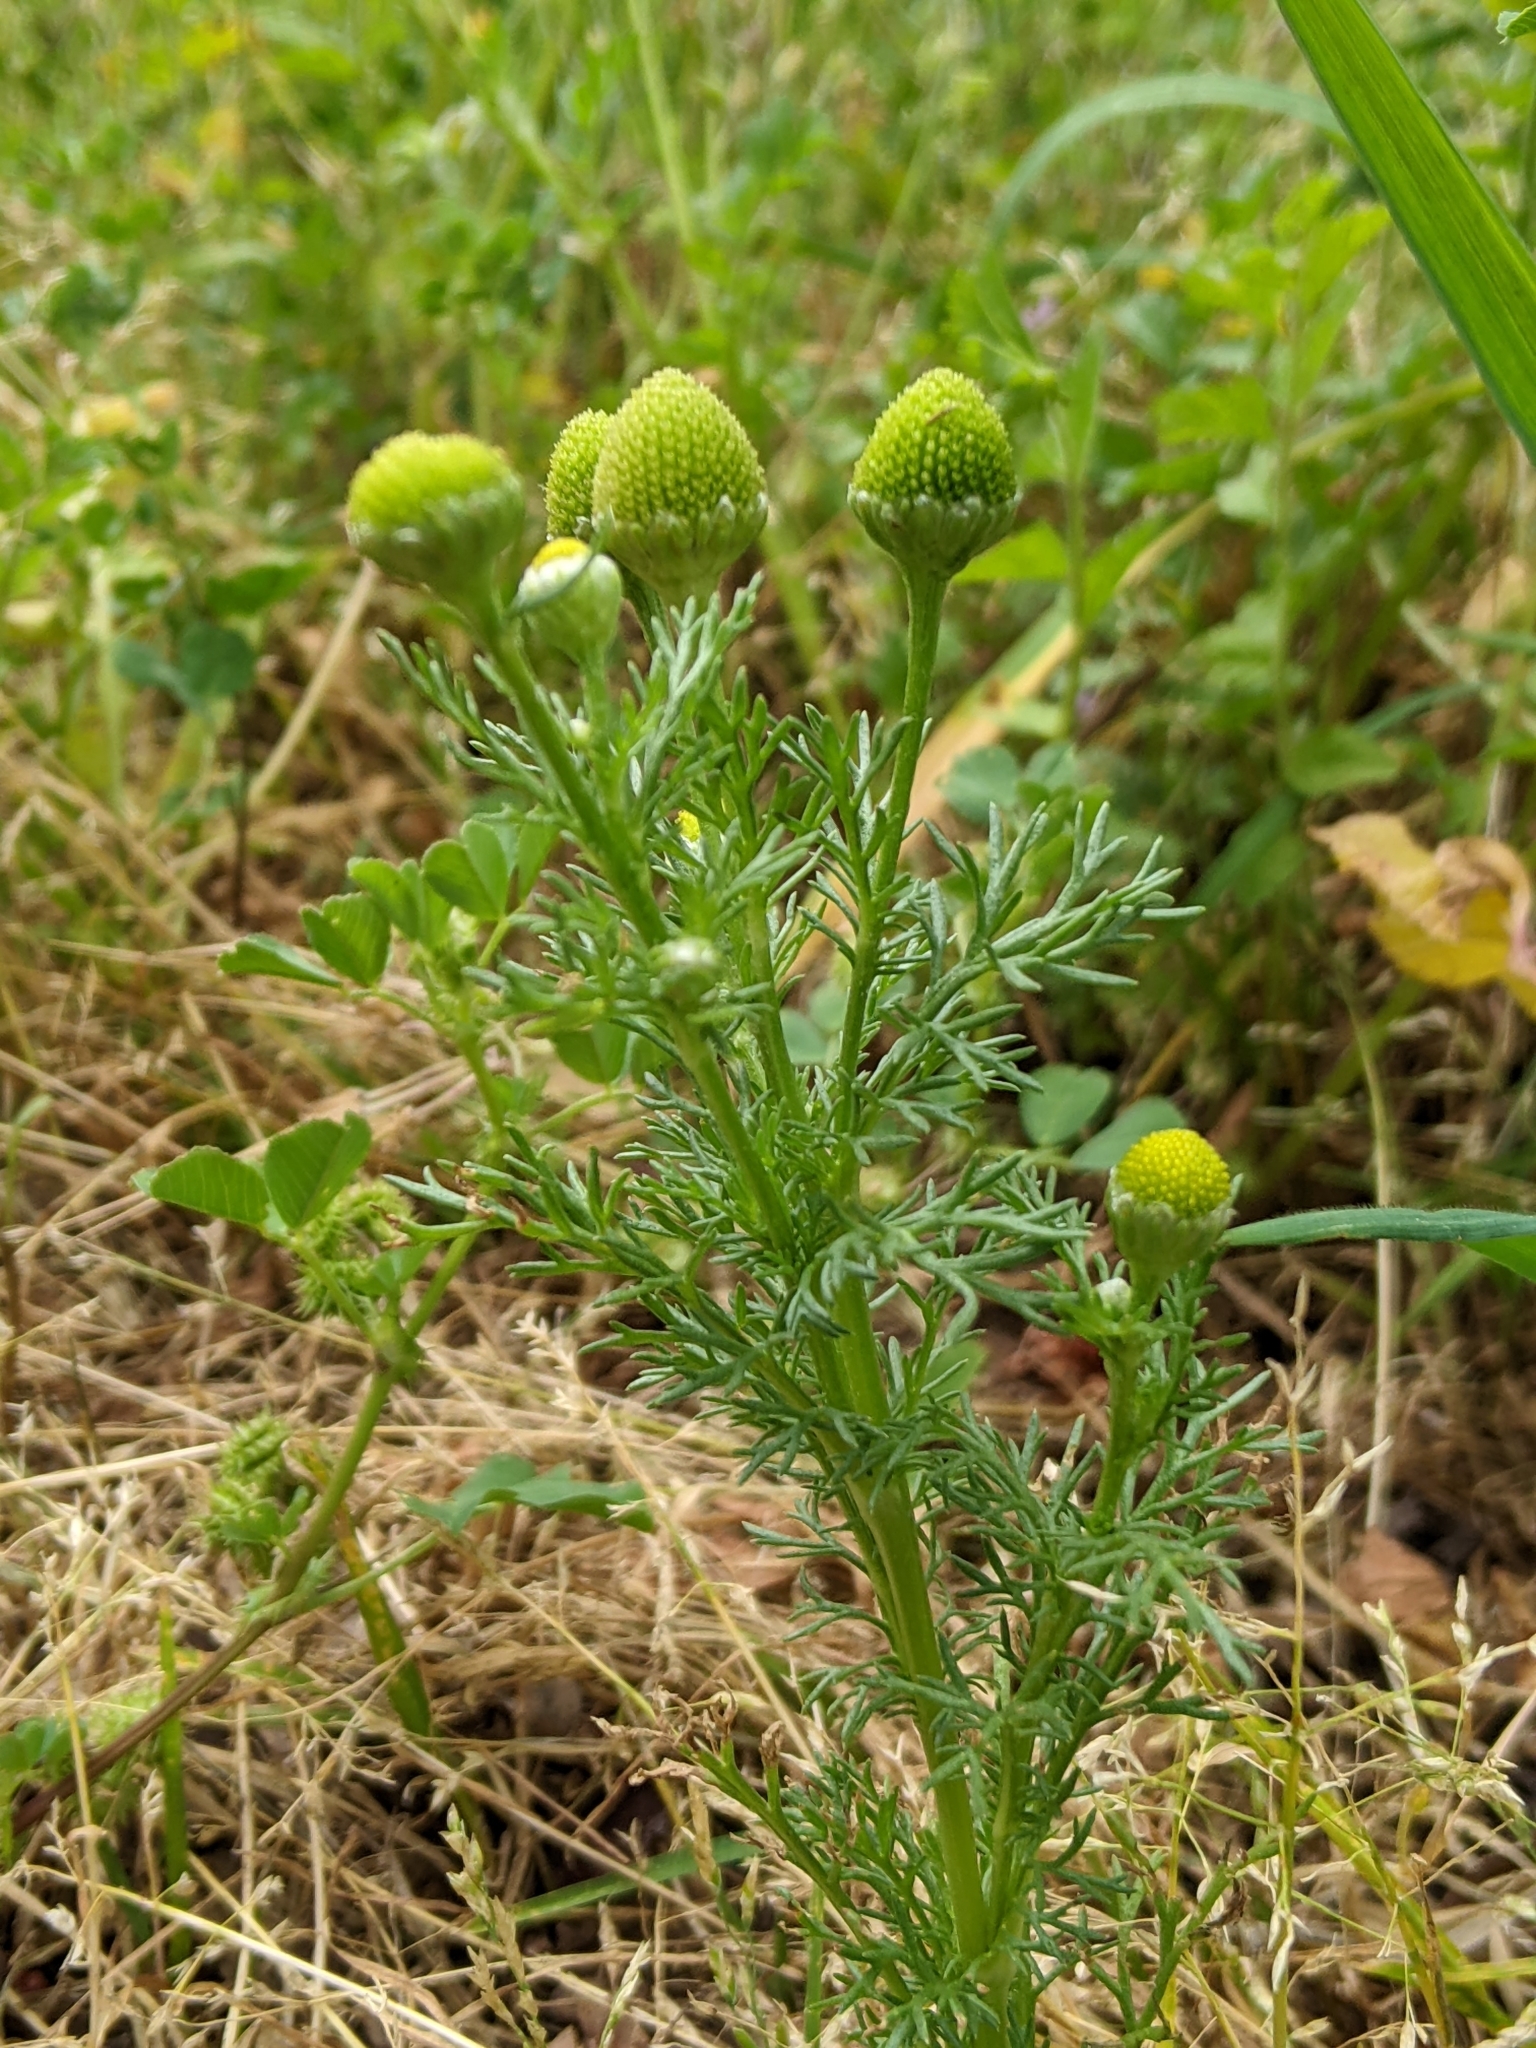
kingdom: Plantae
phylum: Tracheophyta
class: Magnoliopsida
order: Asterales
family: Asteraceae
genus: Matricaria
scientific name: Matricaria discoidea
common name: Disc mayweed
